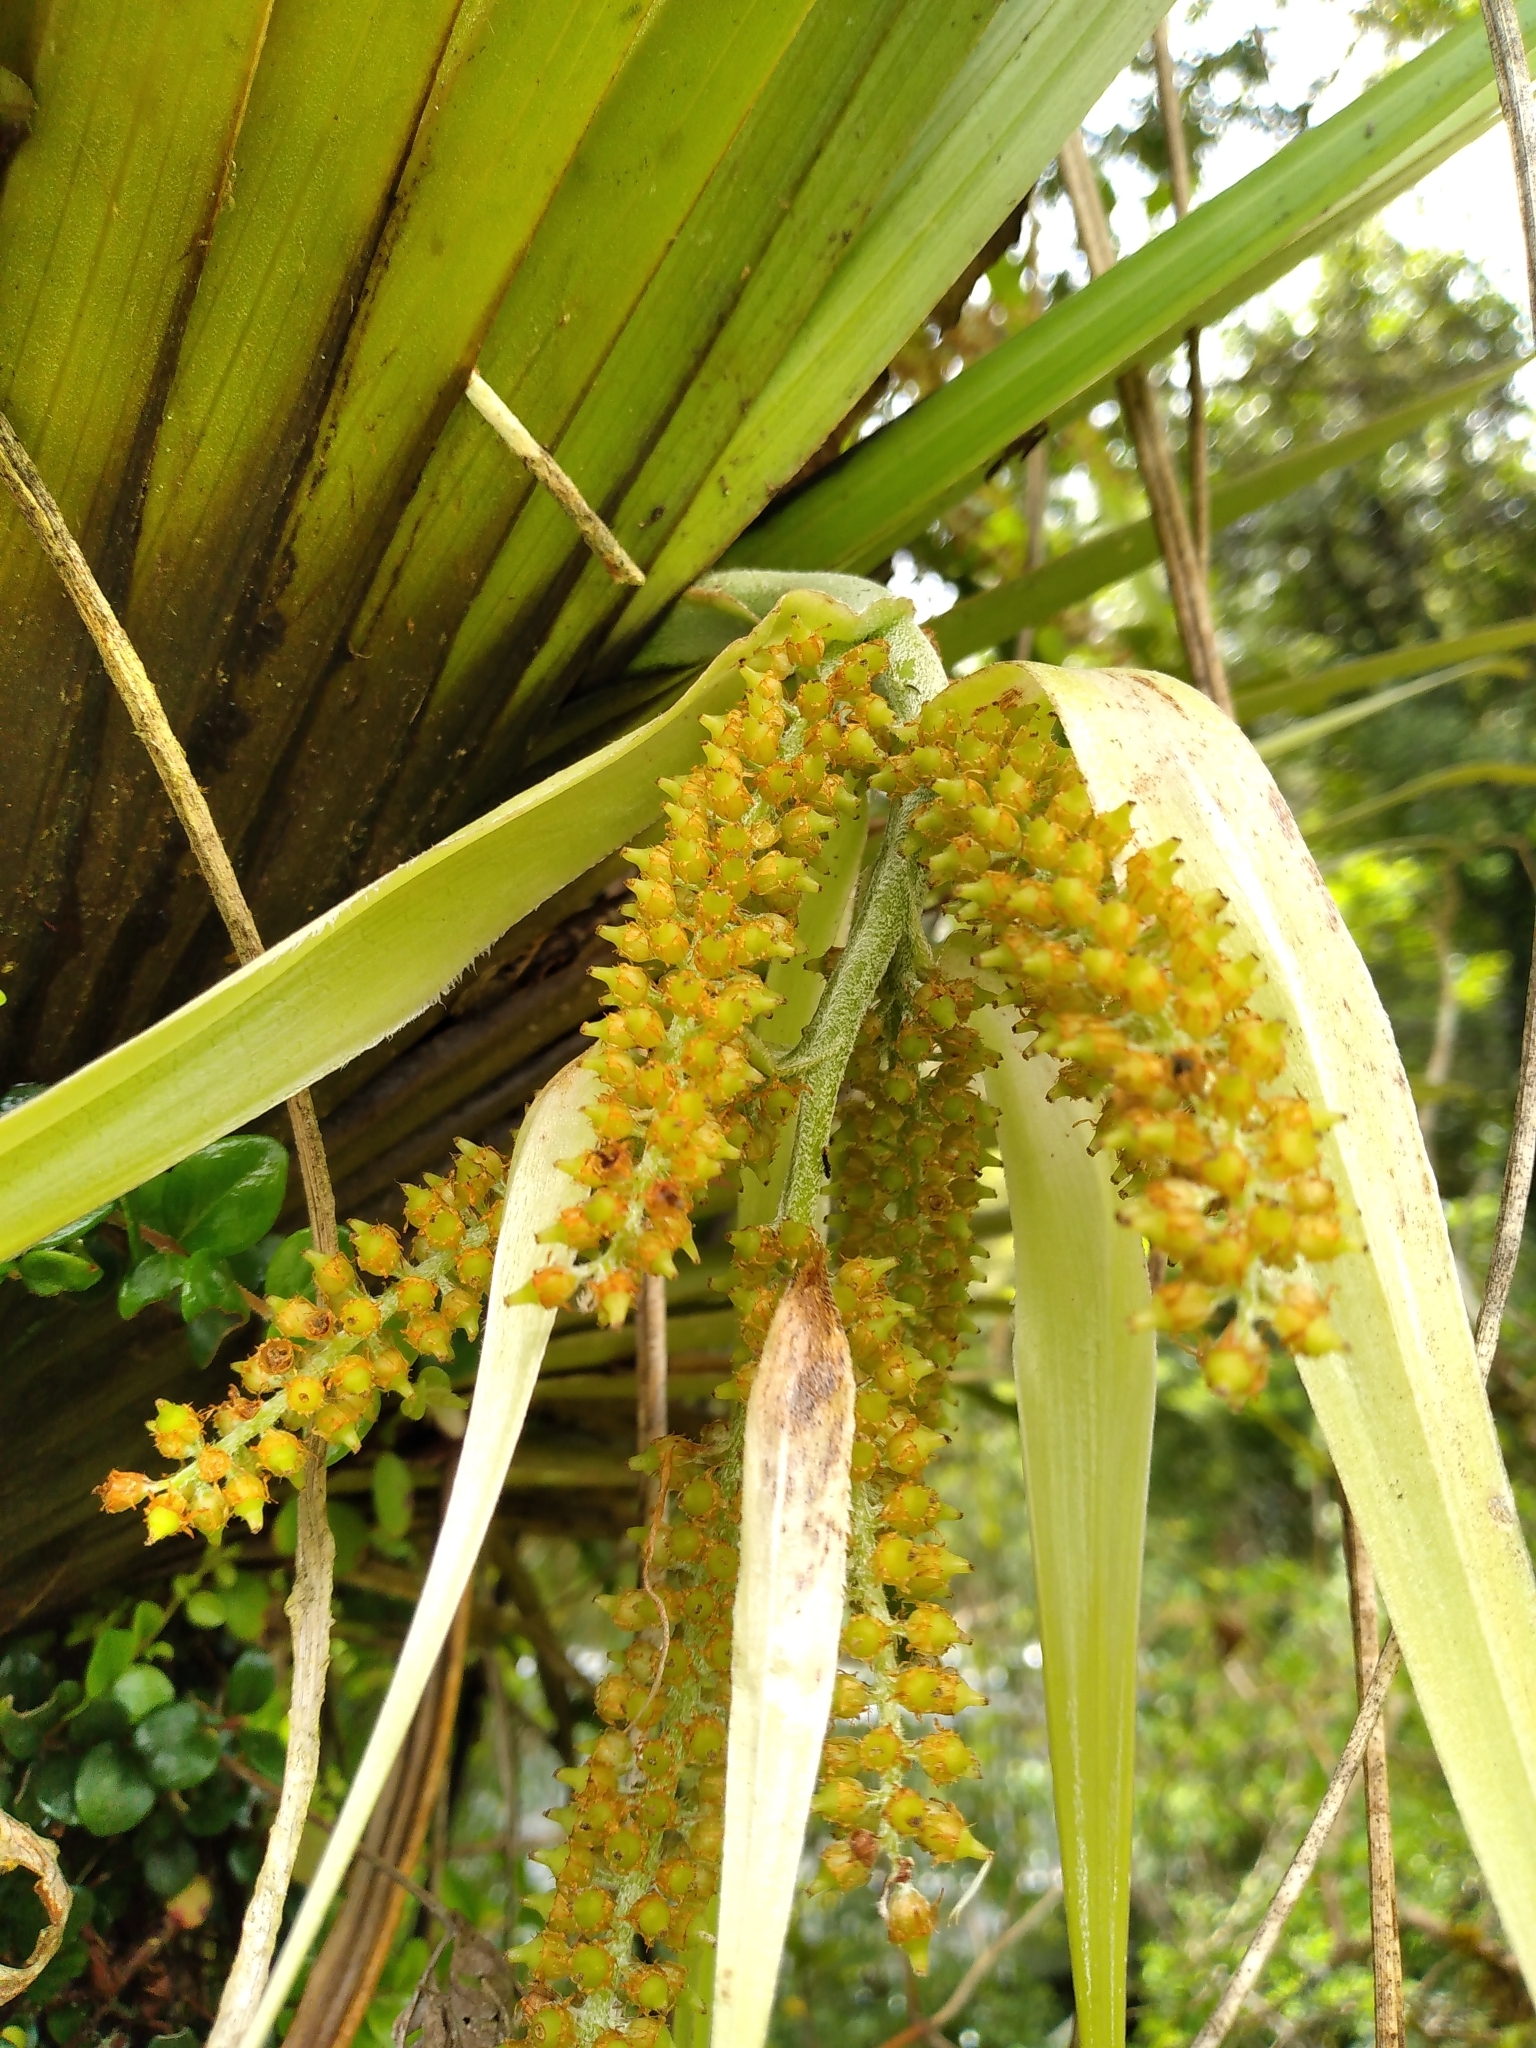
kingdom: Plantae
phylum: Tracheophyta
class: Liliopsida
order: Asparagales
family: Asteliaceae
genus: Astelia
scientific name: Astelia microsperma
